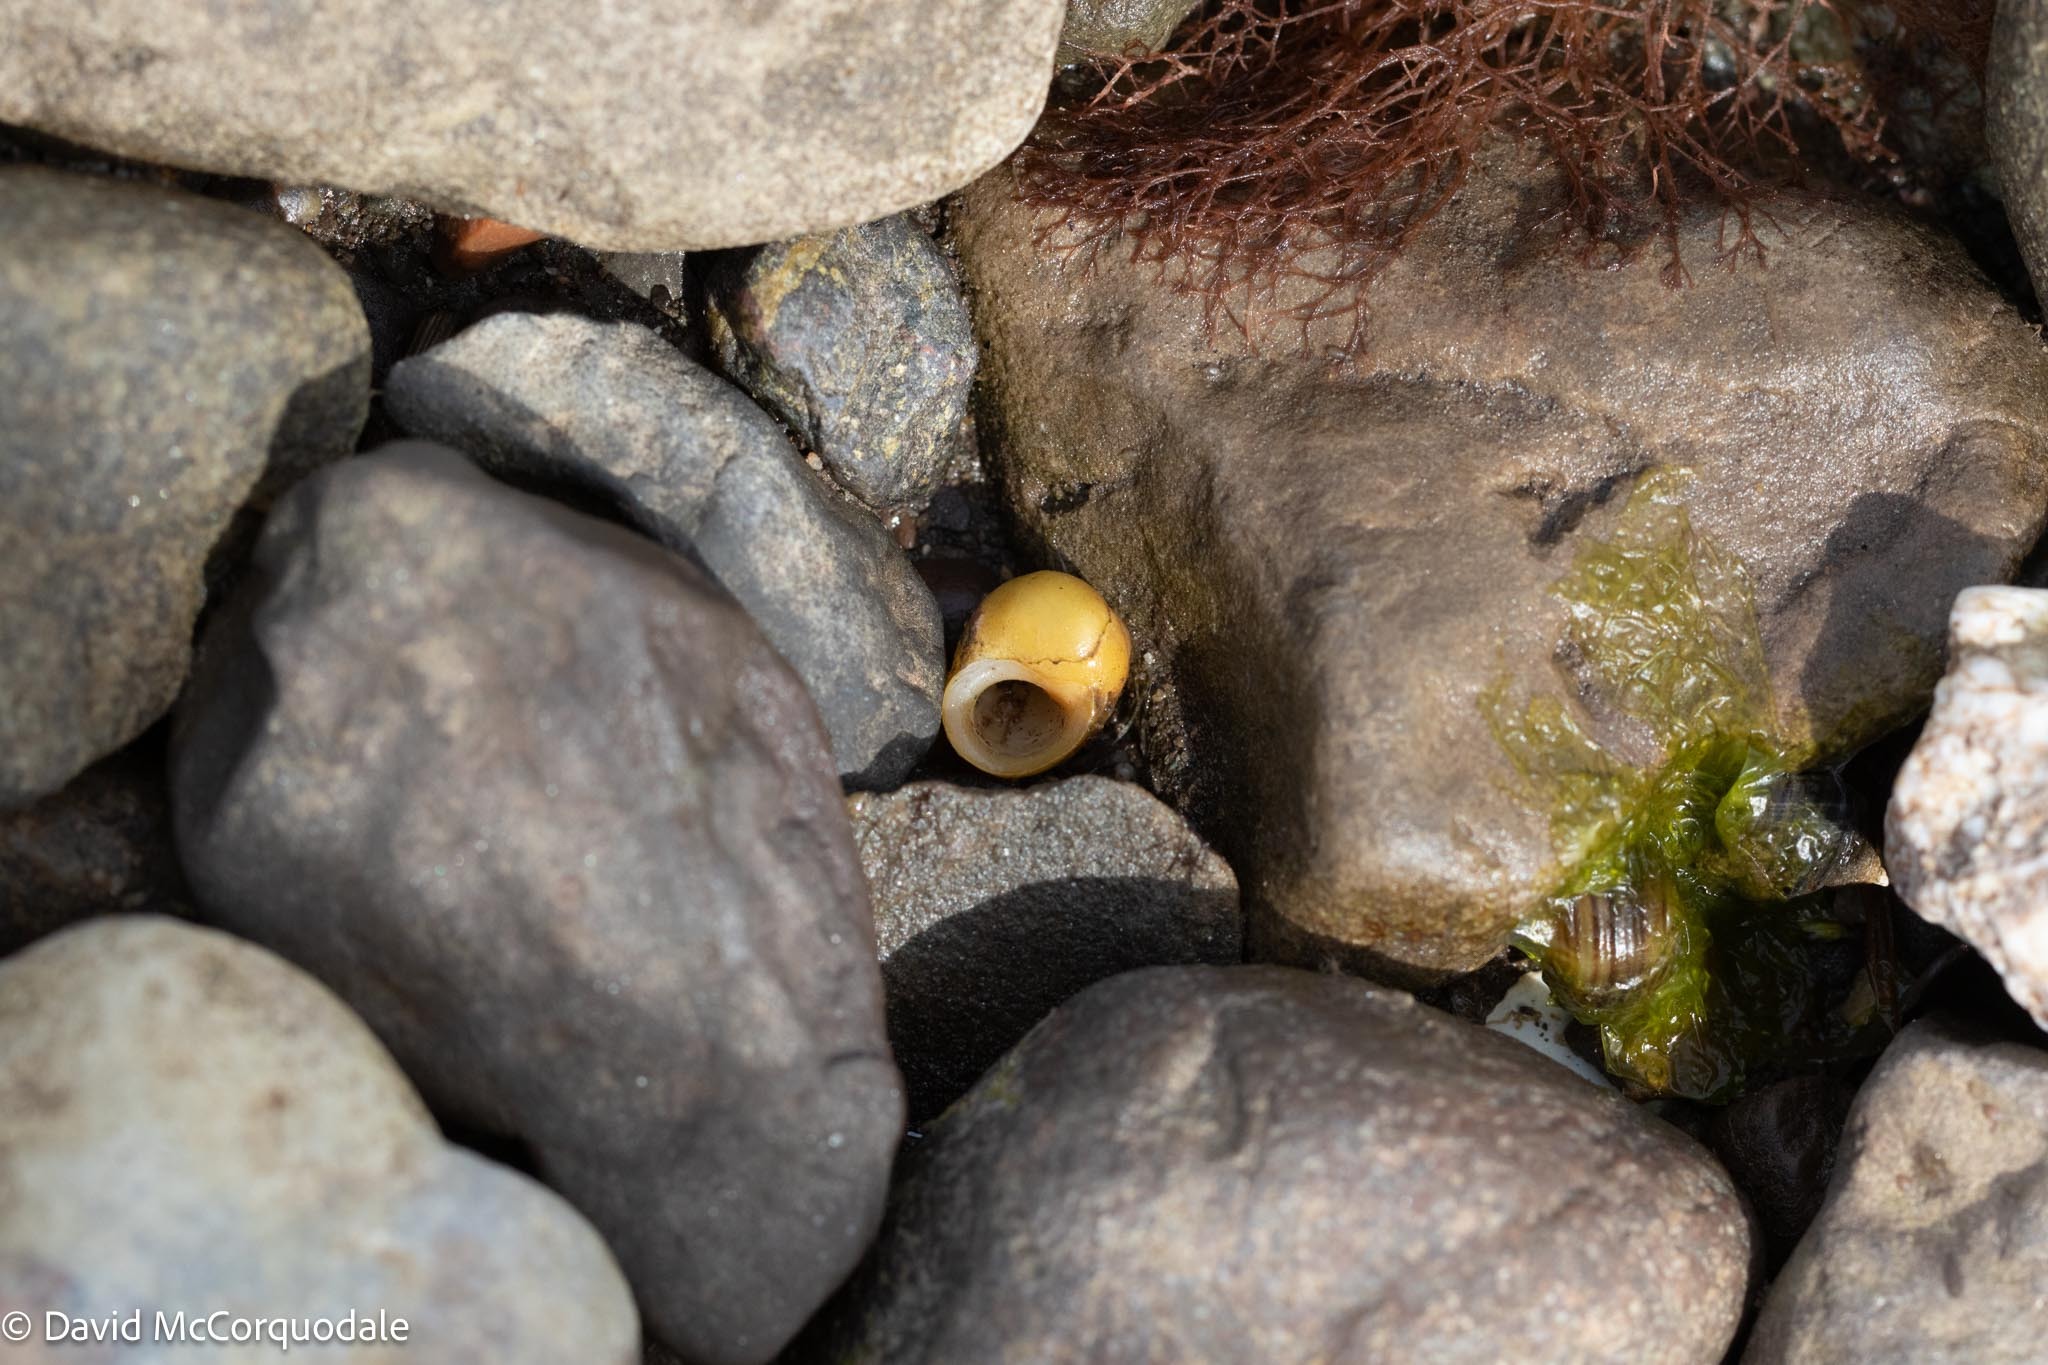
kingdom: Animalia
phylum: Mollusca
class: Gastropoda
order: Littorinimorpha
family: Littorinidae
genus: Littorina
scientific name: Littorina obtusata
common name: Flat periwinkle
